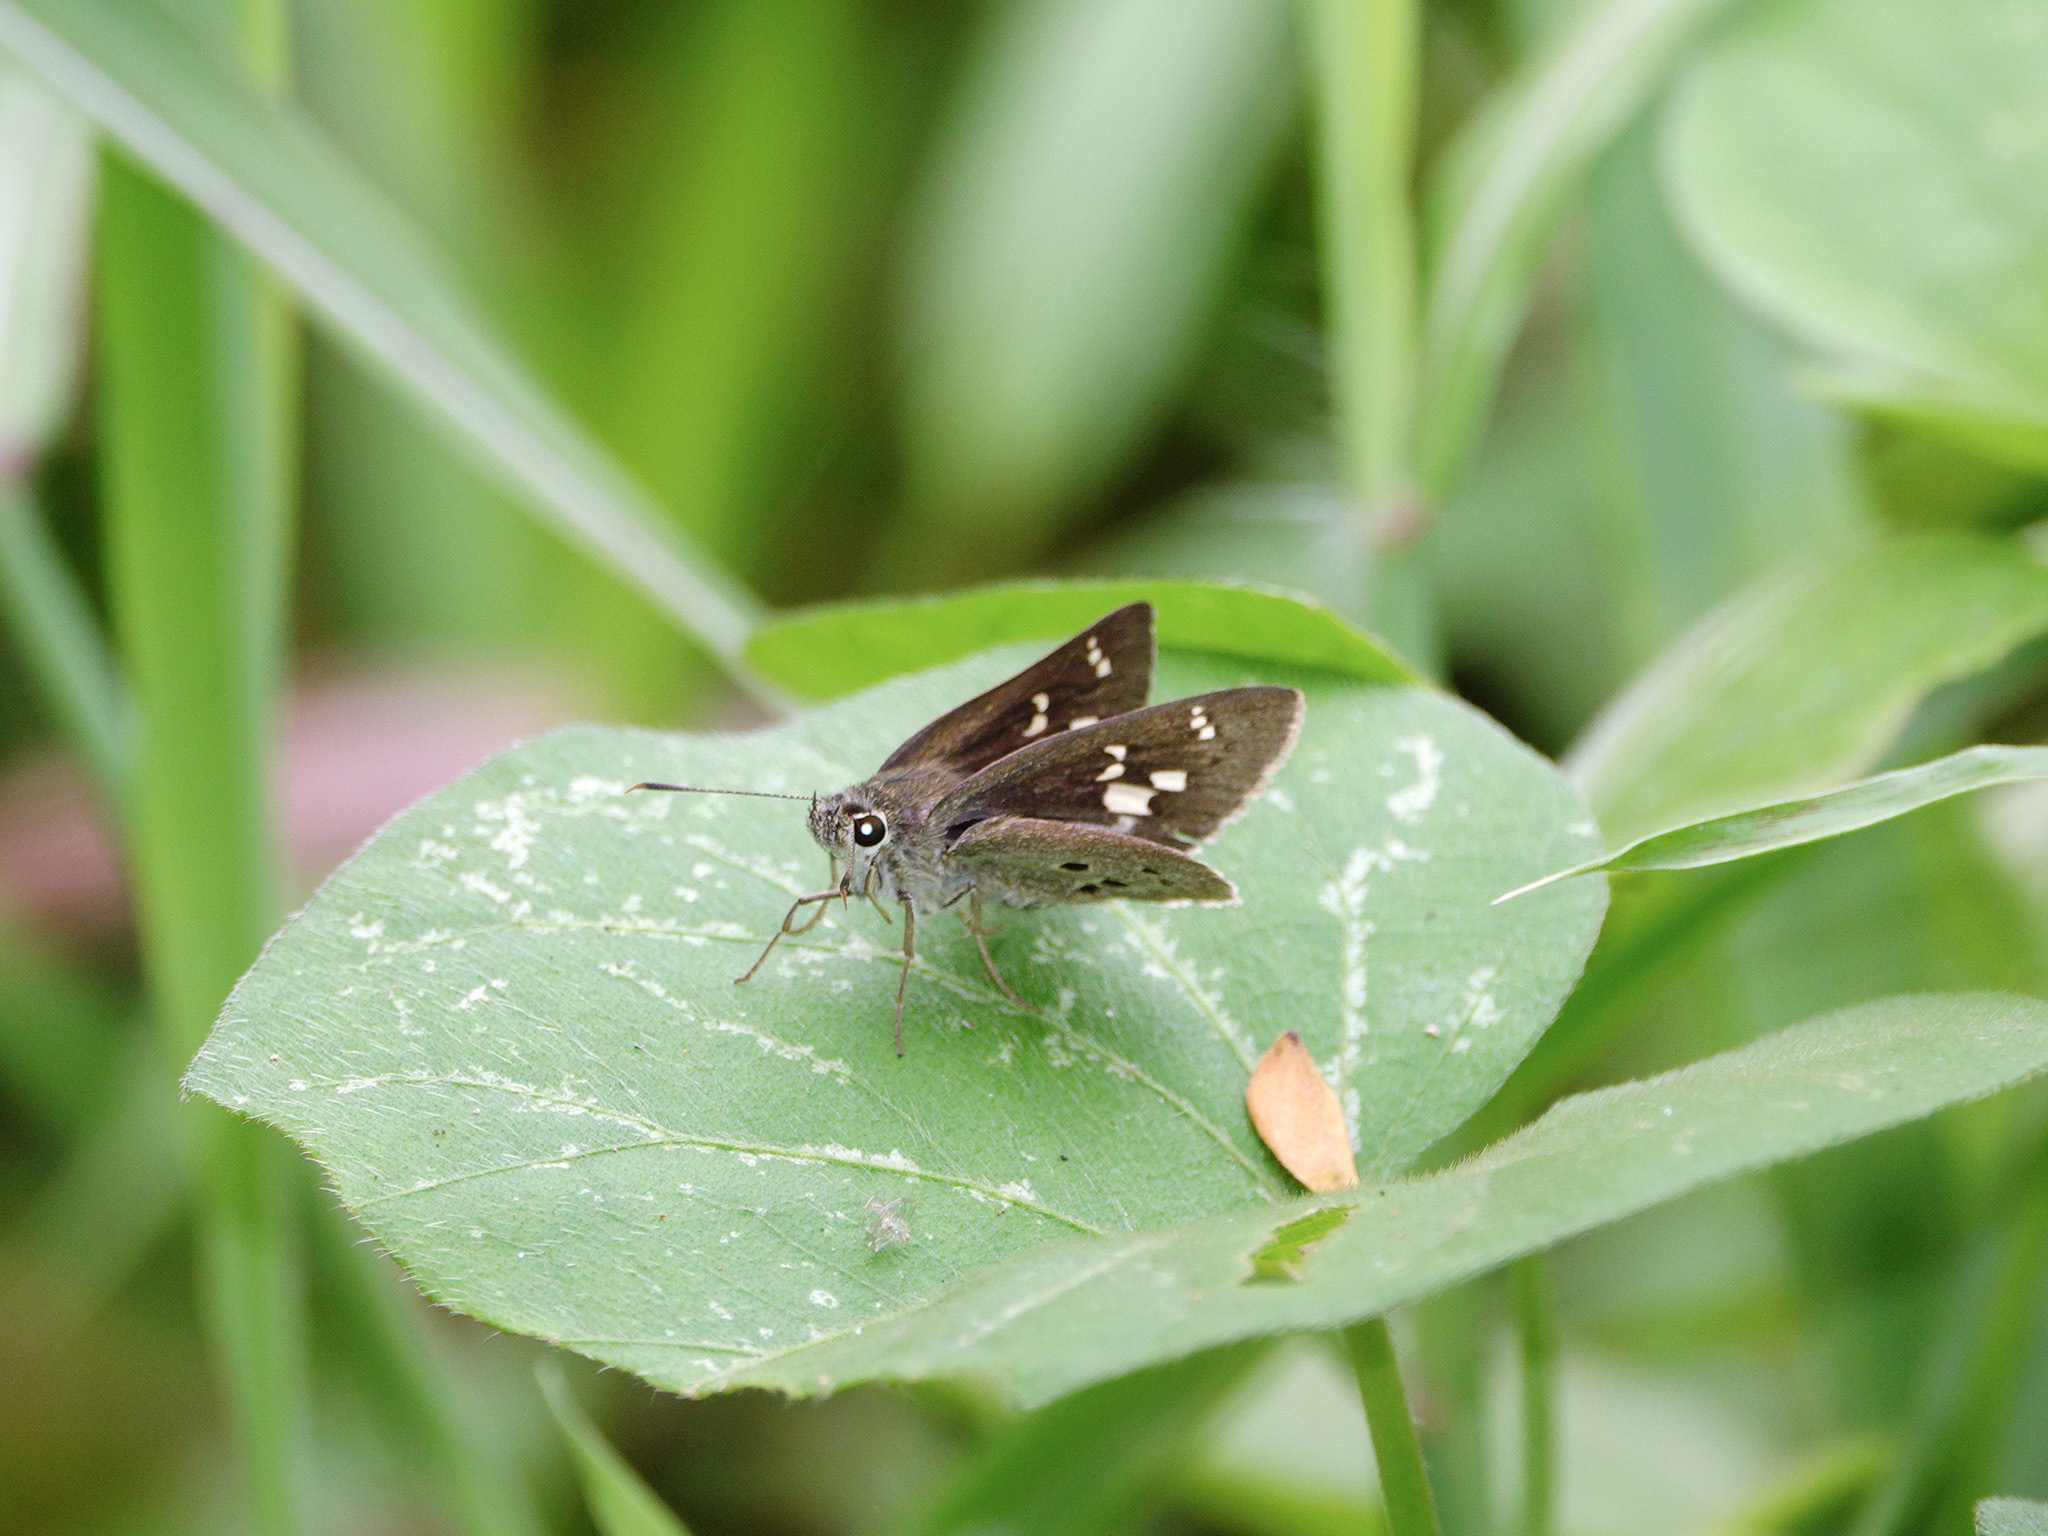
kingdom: Animalia
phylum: Arthropoda
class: Insecta
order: Lepidoptera
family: Hesperiidae
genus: Suastus
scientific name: Suastus gremius
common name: Indian palm bob
